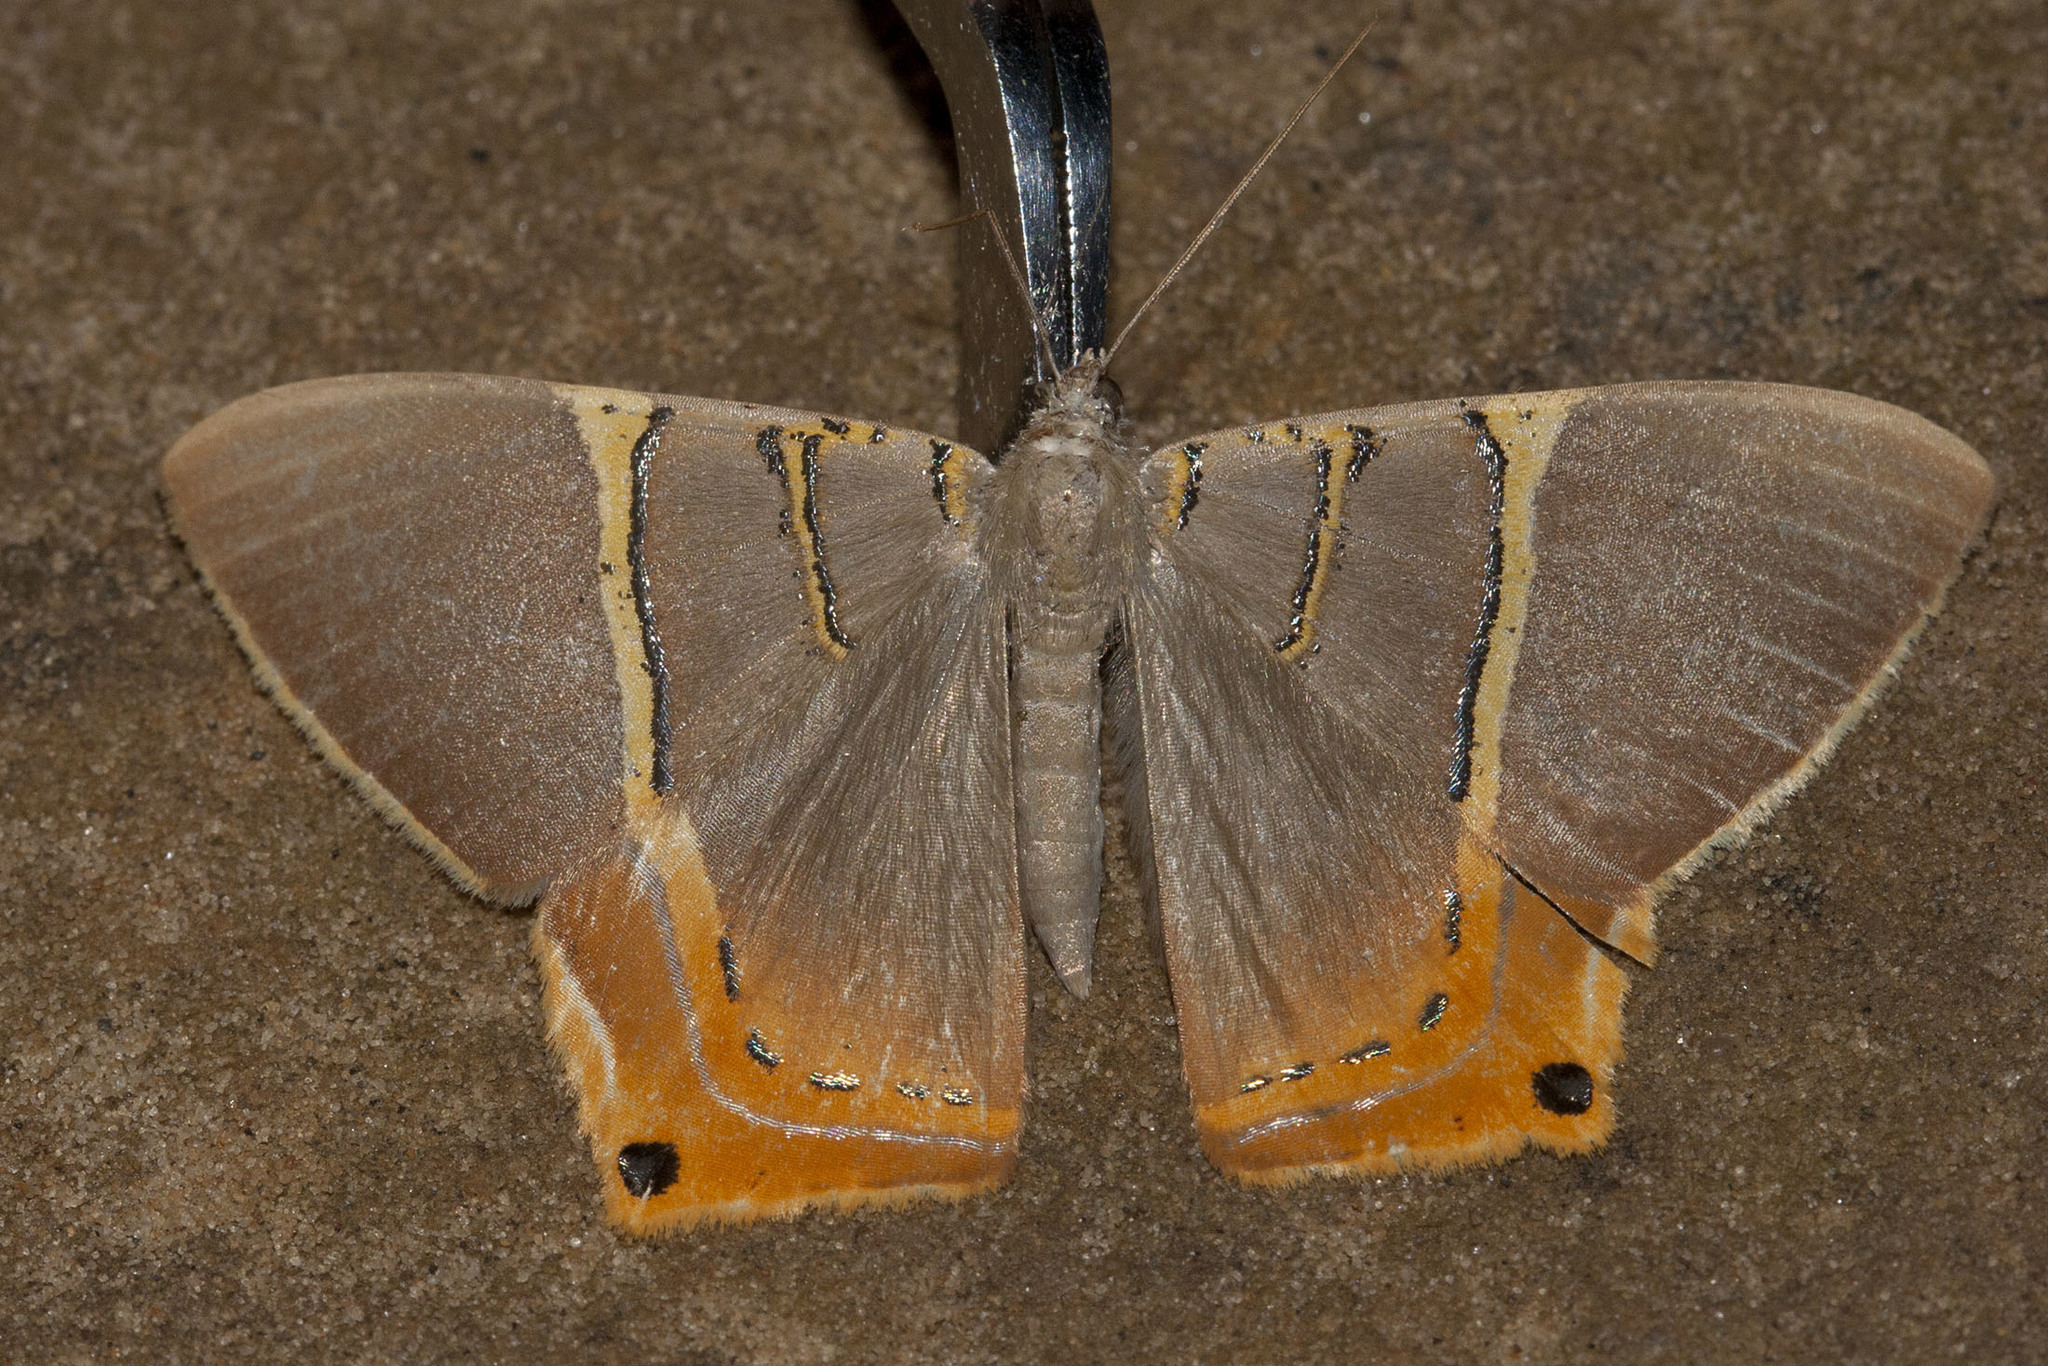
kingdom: Animalia
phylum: Arthropoda
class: Insecta
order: Lepidoptera
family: Geometridae
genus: Phrygionis
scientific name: Phrygionis polita
